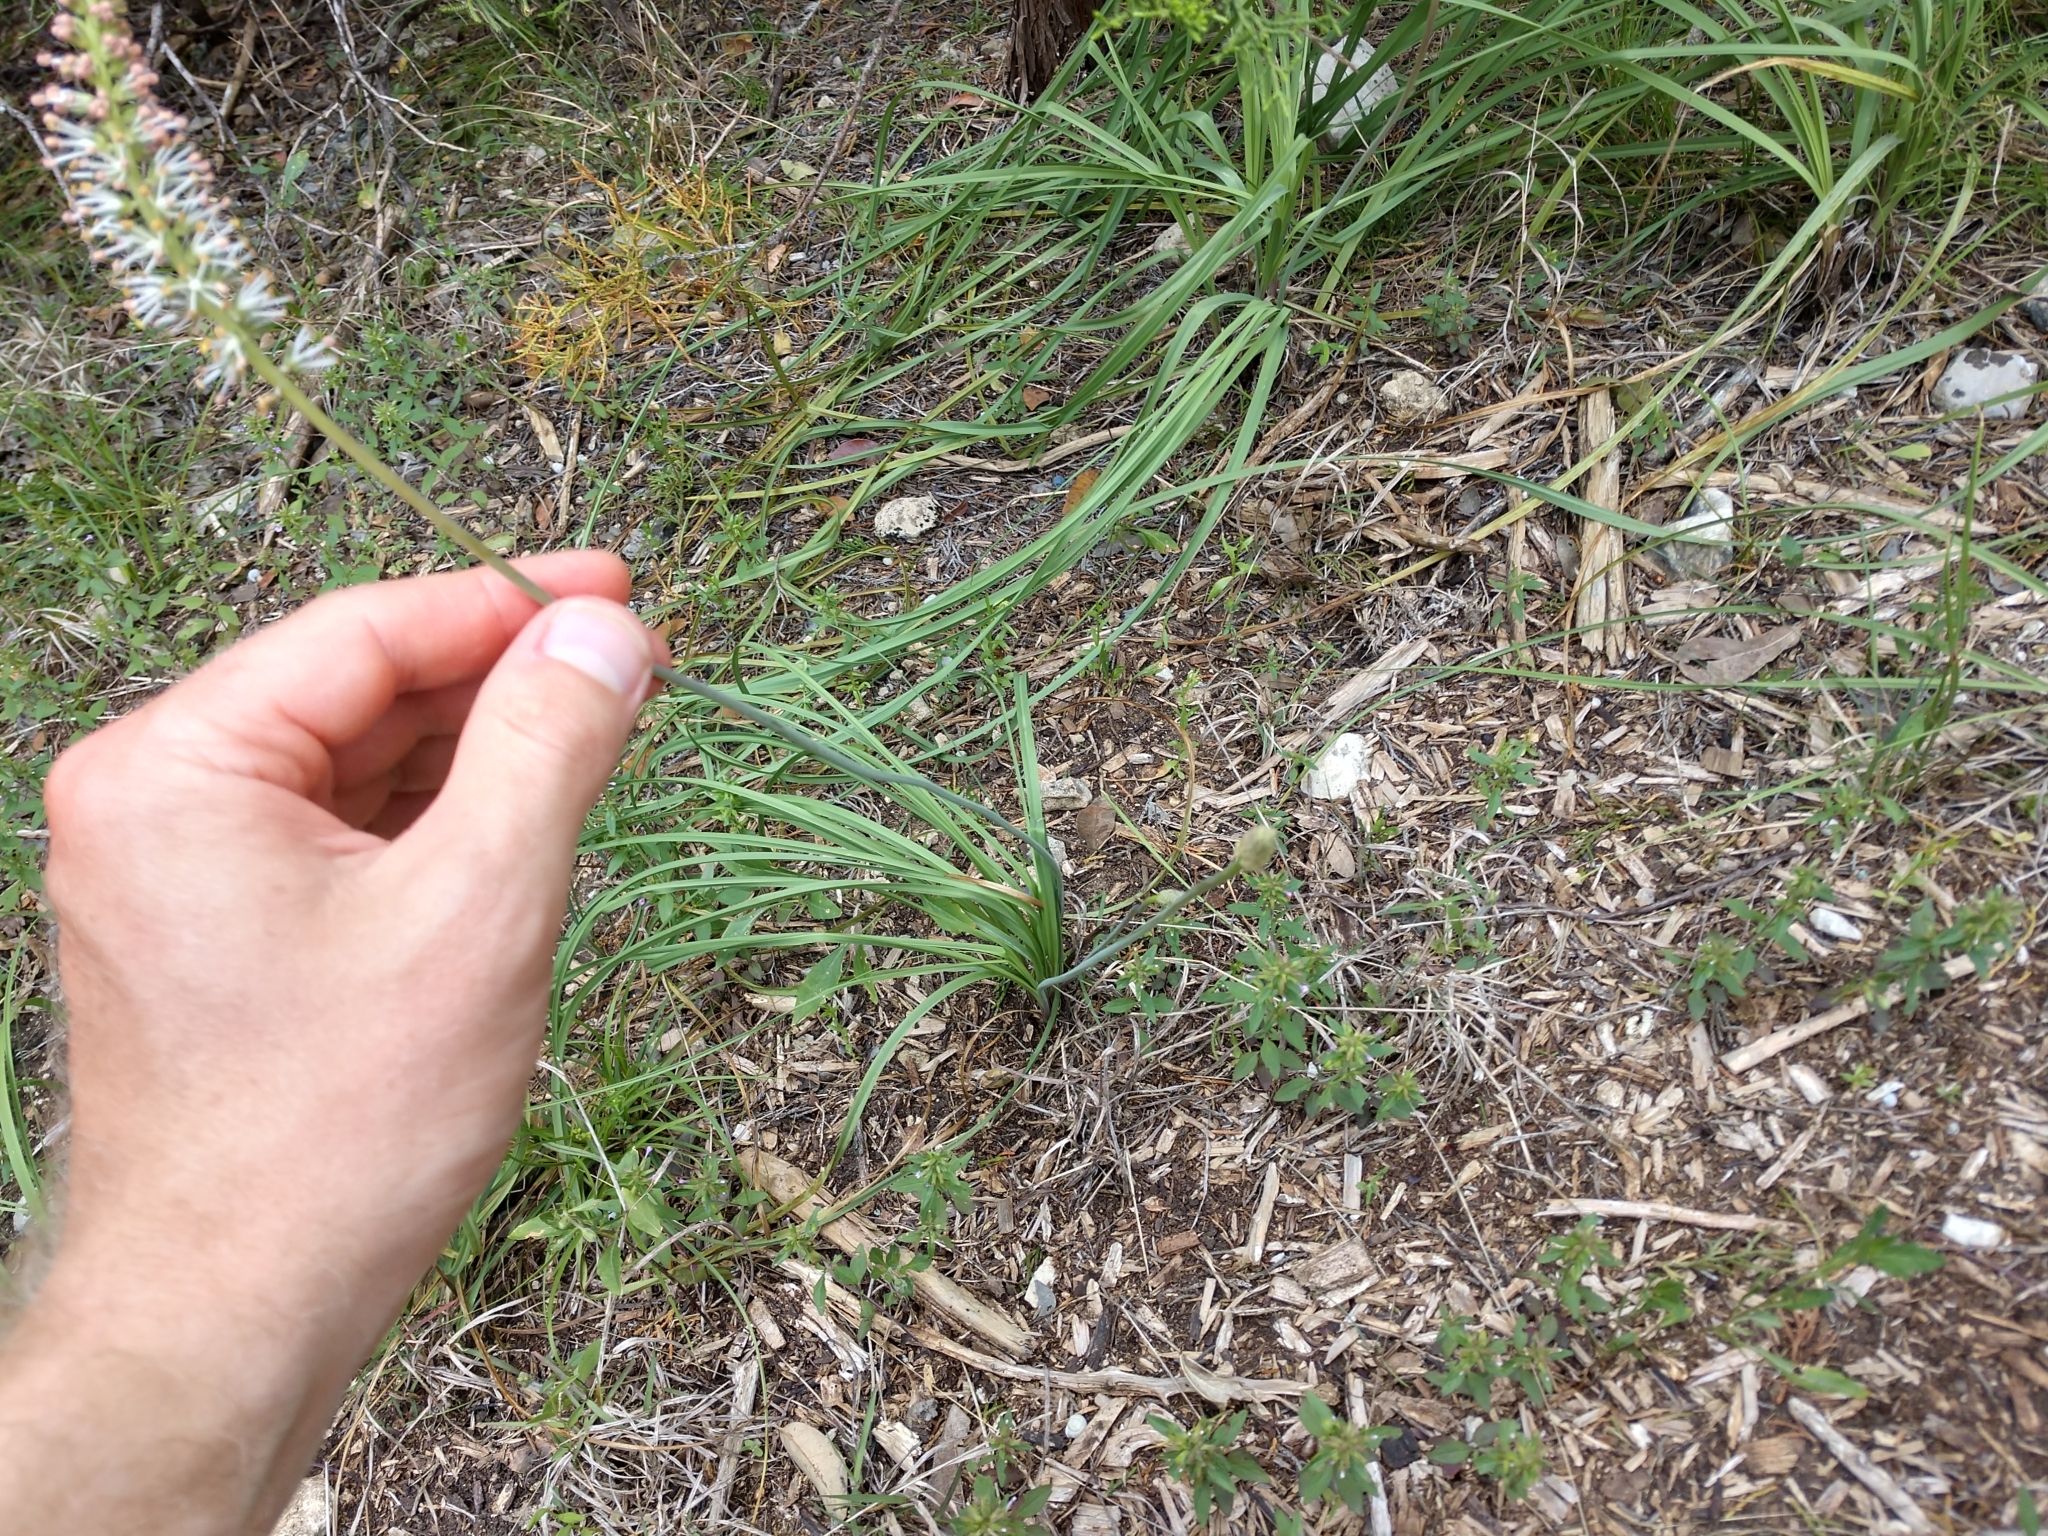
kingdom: Plantae
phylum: Tracheophyta
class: Liliopsida
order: Liliales
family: Melanthiaceae
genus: Schoenocaulon
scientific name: Schoenocaulon texanum
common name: Texas feather-shank
